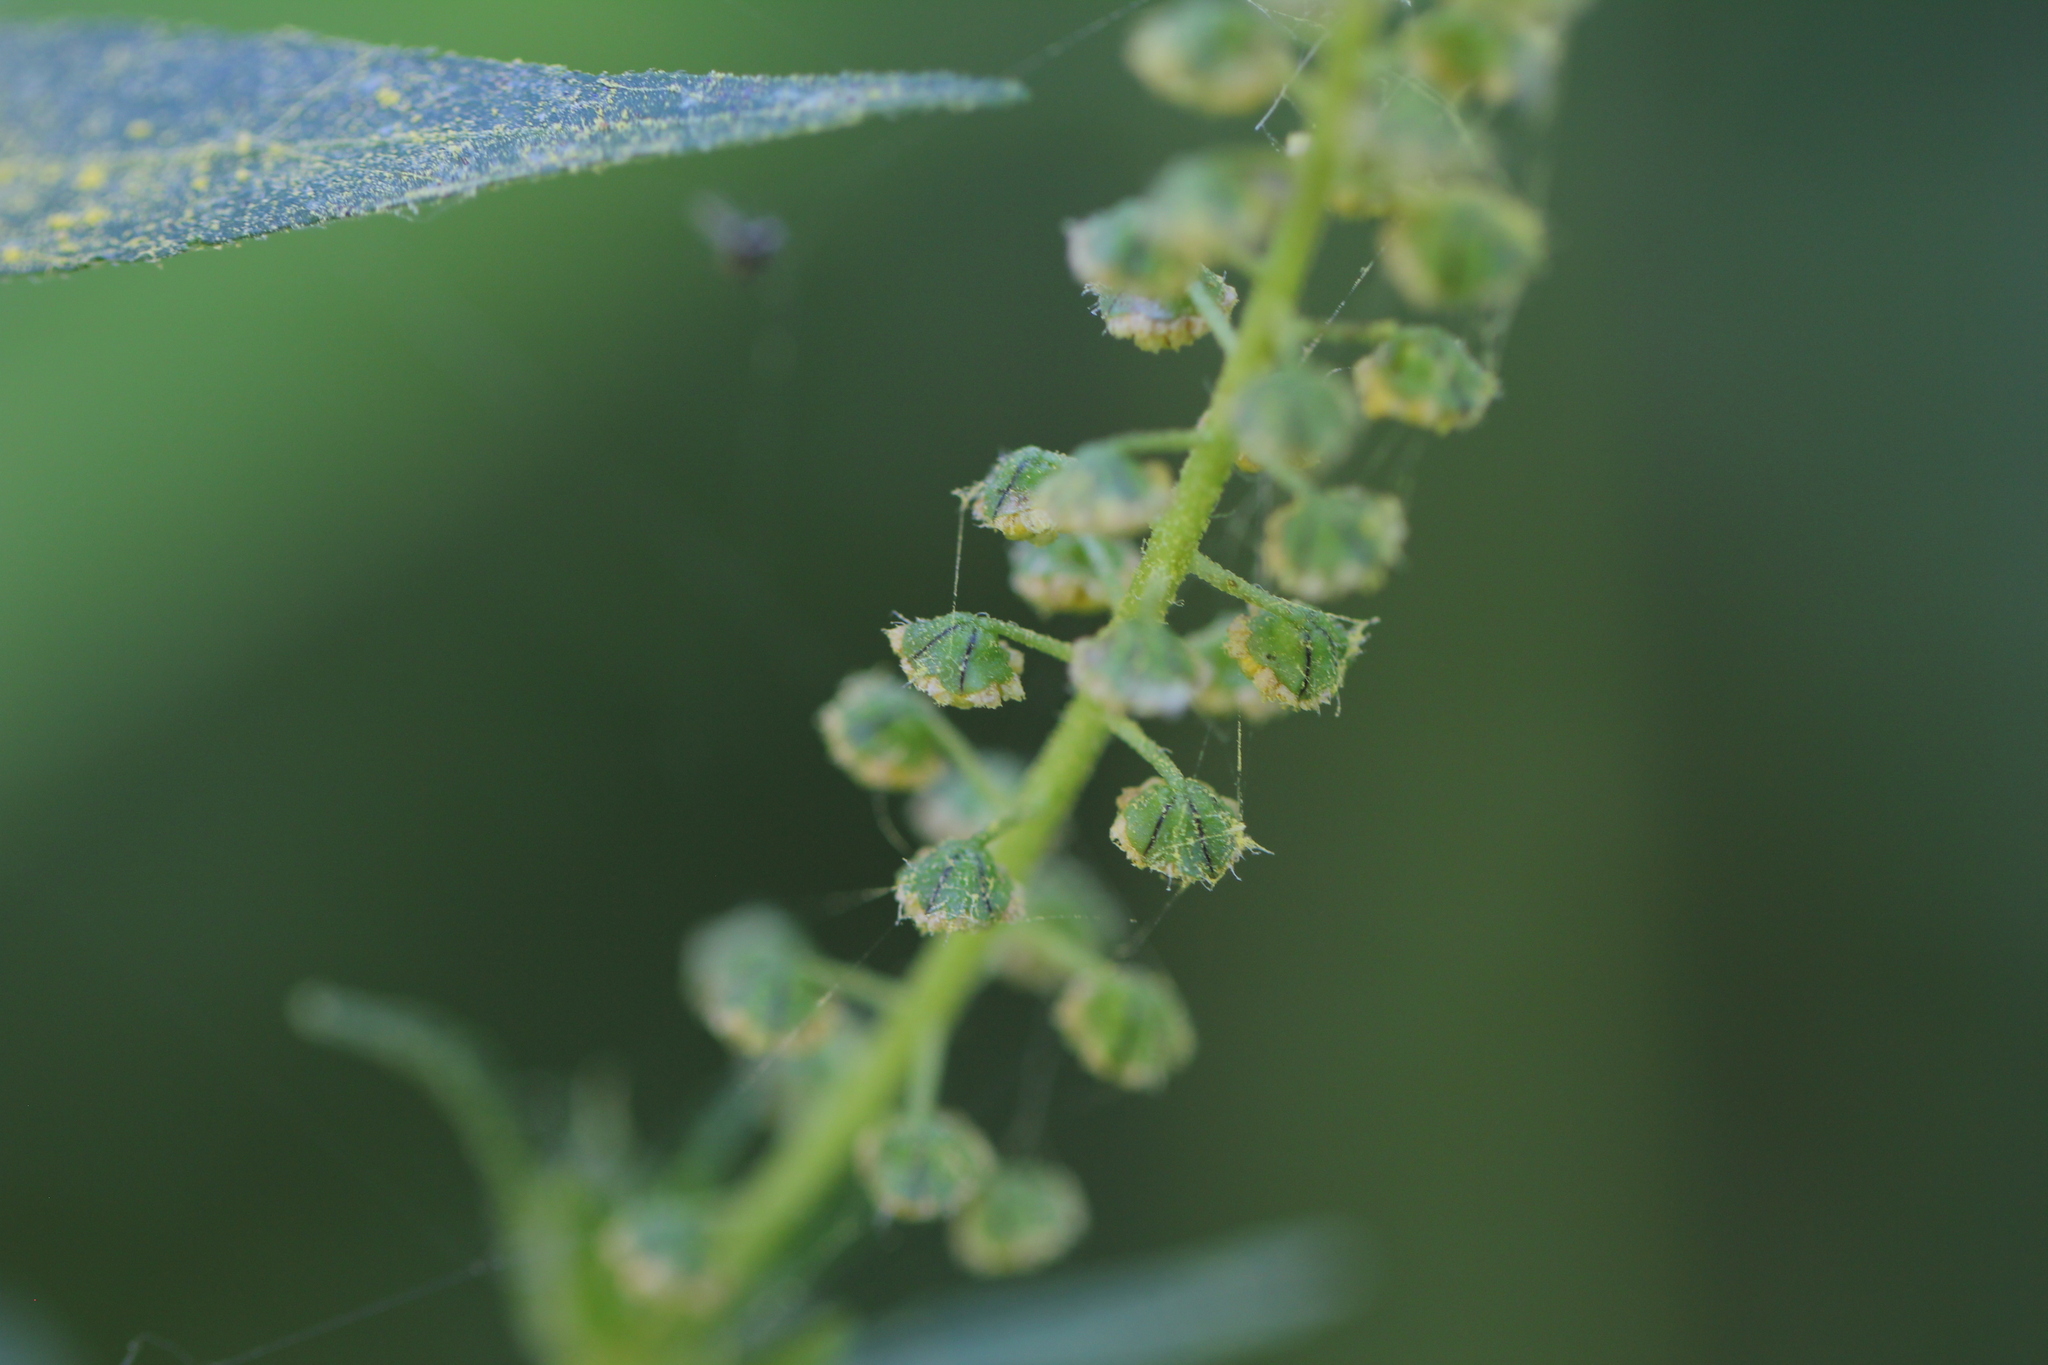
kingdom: Plantae
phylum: Tracheophyta
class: Magnoliopsida
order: Asterales
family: Asteraceae
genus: Ambrosia
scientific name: Ambrosia trifida
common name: Giant ragweed
